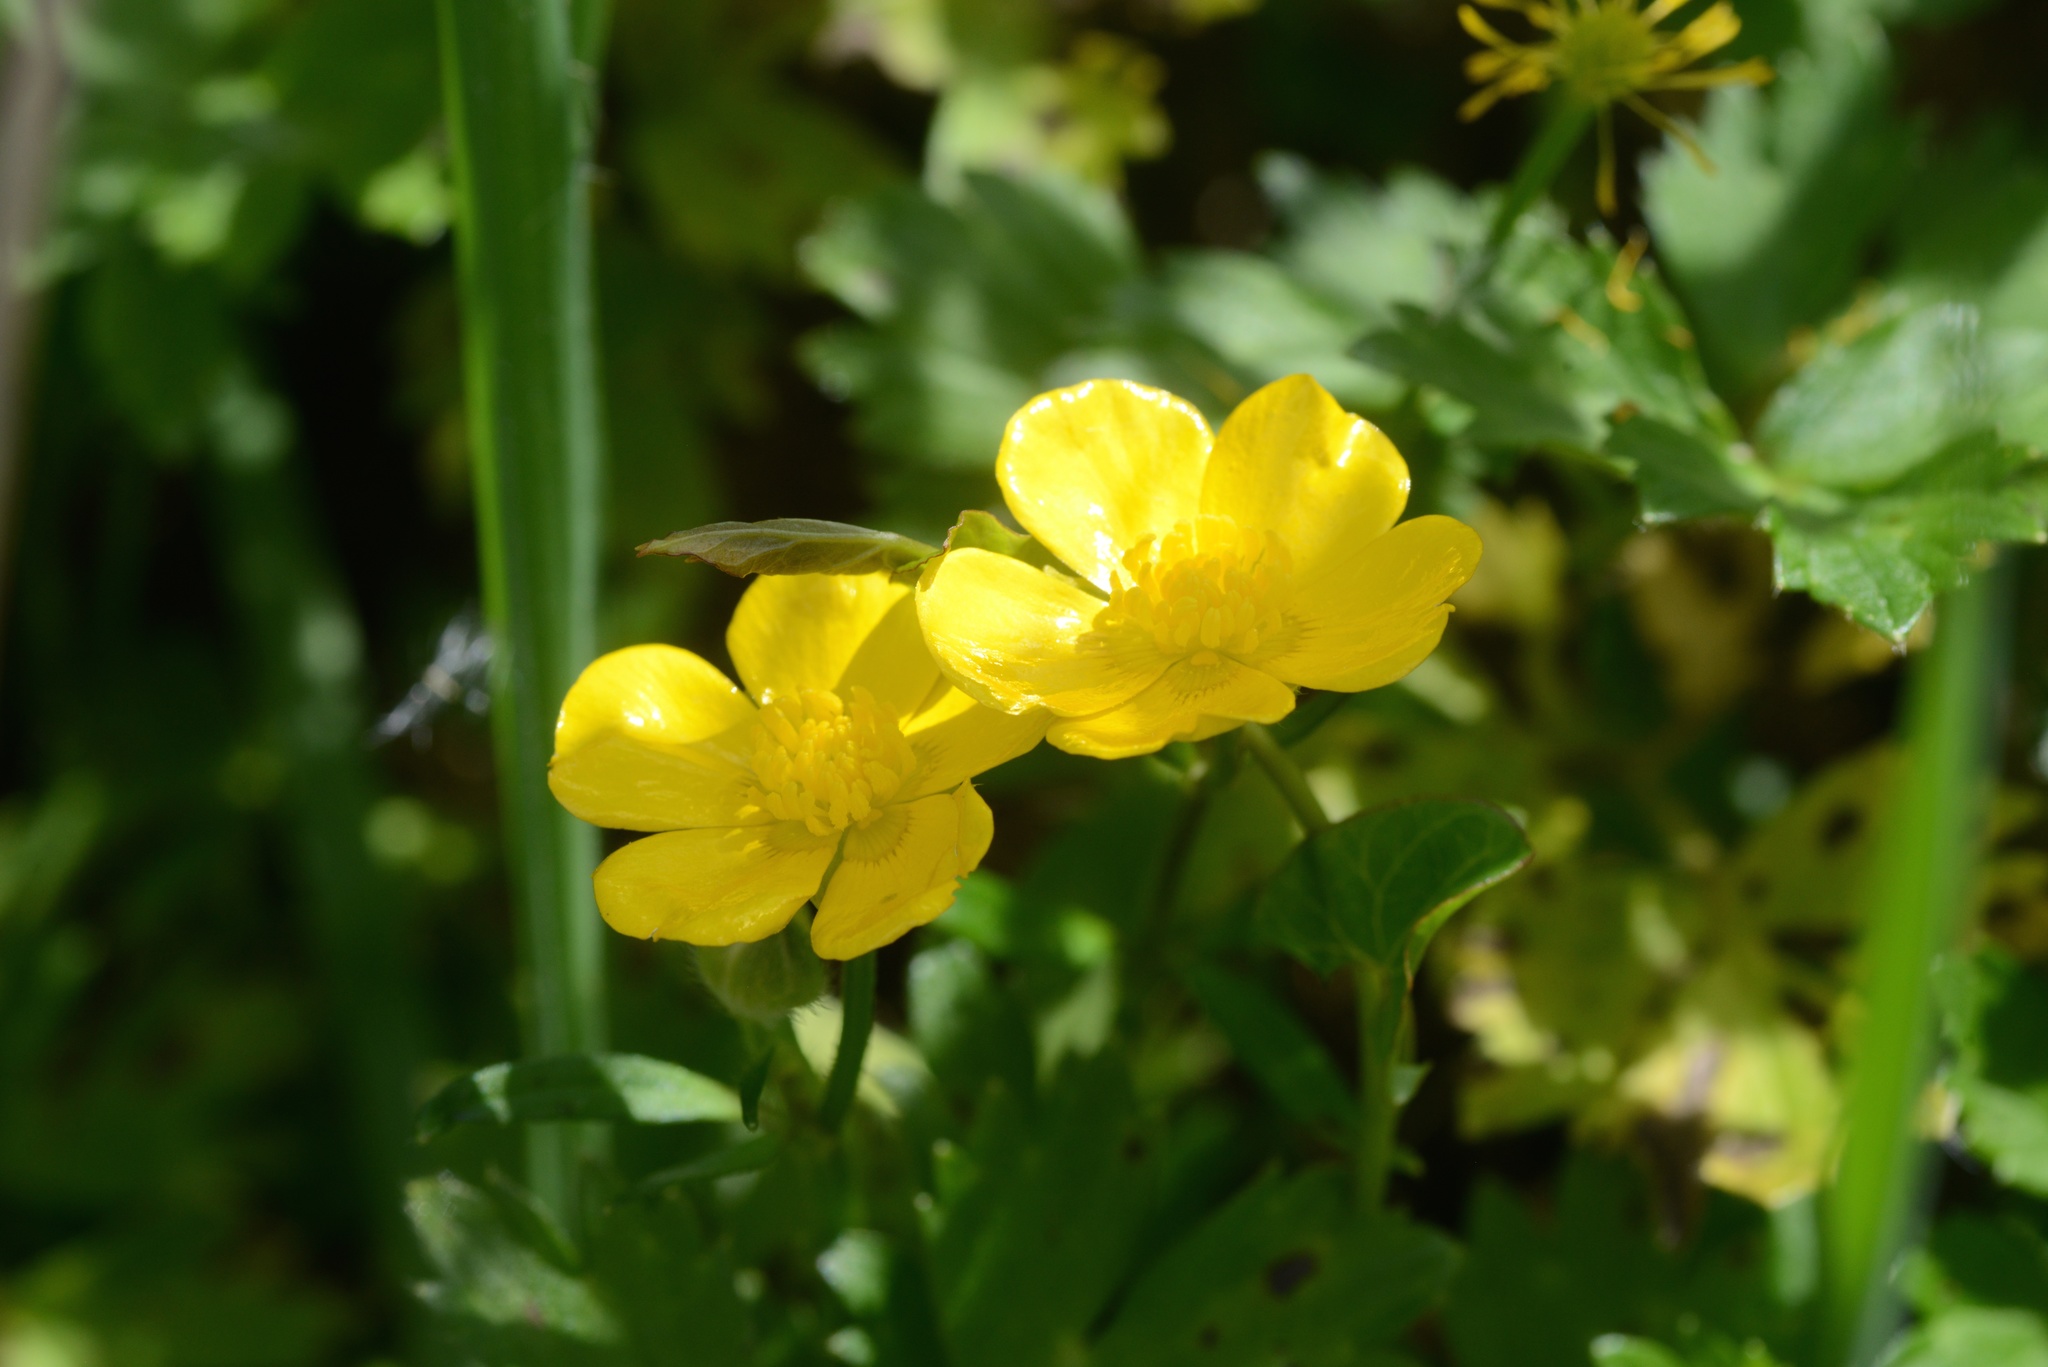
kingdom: Plantae
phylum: Tracheophyta
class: Magnoliopsida
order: Ranunculales
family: Ranunculaceae
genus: Ranunculus
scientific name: Ranunculus repens
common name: Creeping buttercup
